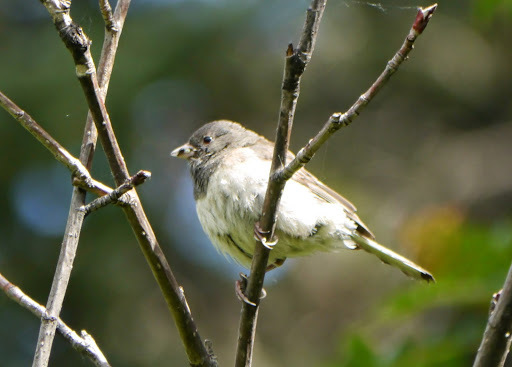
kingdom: Animalia
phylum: Chordata
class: Aves
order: Passeriformes
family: Passerellidae
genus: Junco
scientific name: Junco hyemalis
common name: Dark-eyed junco
